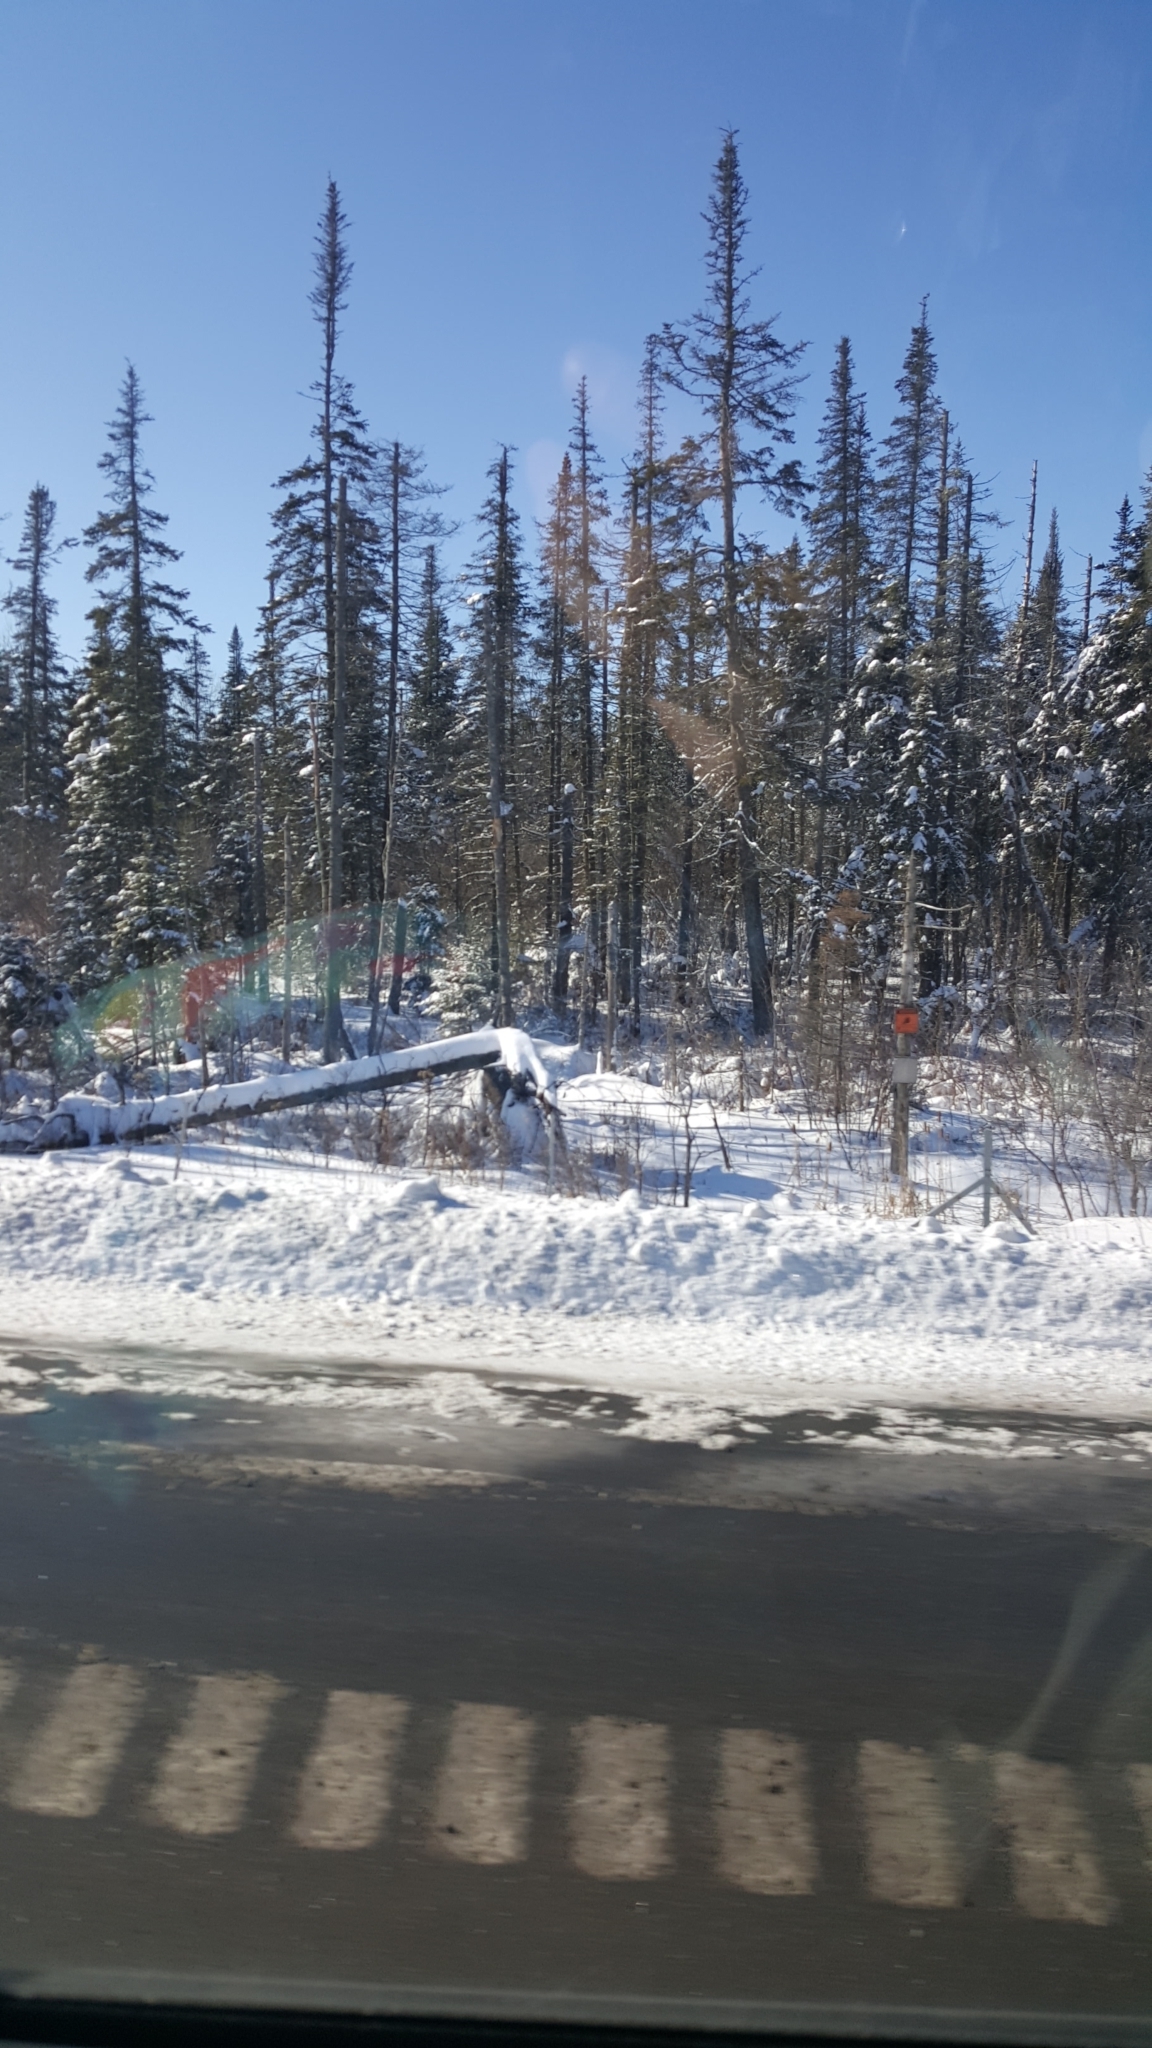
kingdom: Plantae
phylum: Tracheophyta
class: Pinopsida
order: Pinales
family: Pinaceae
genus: Abies
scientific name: Abies balsamea
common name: Balsam fir
